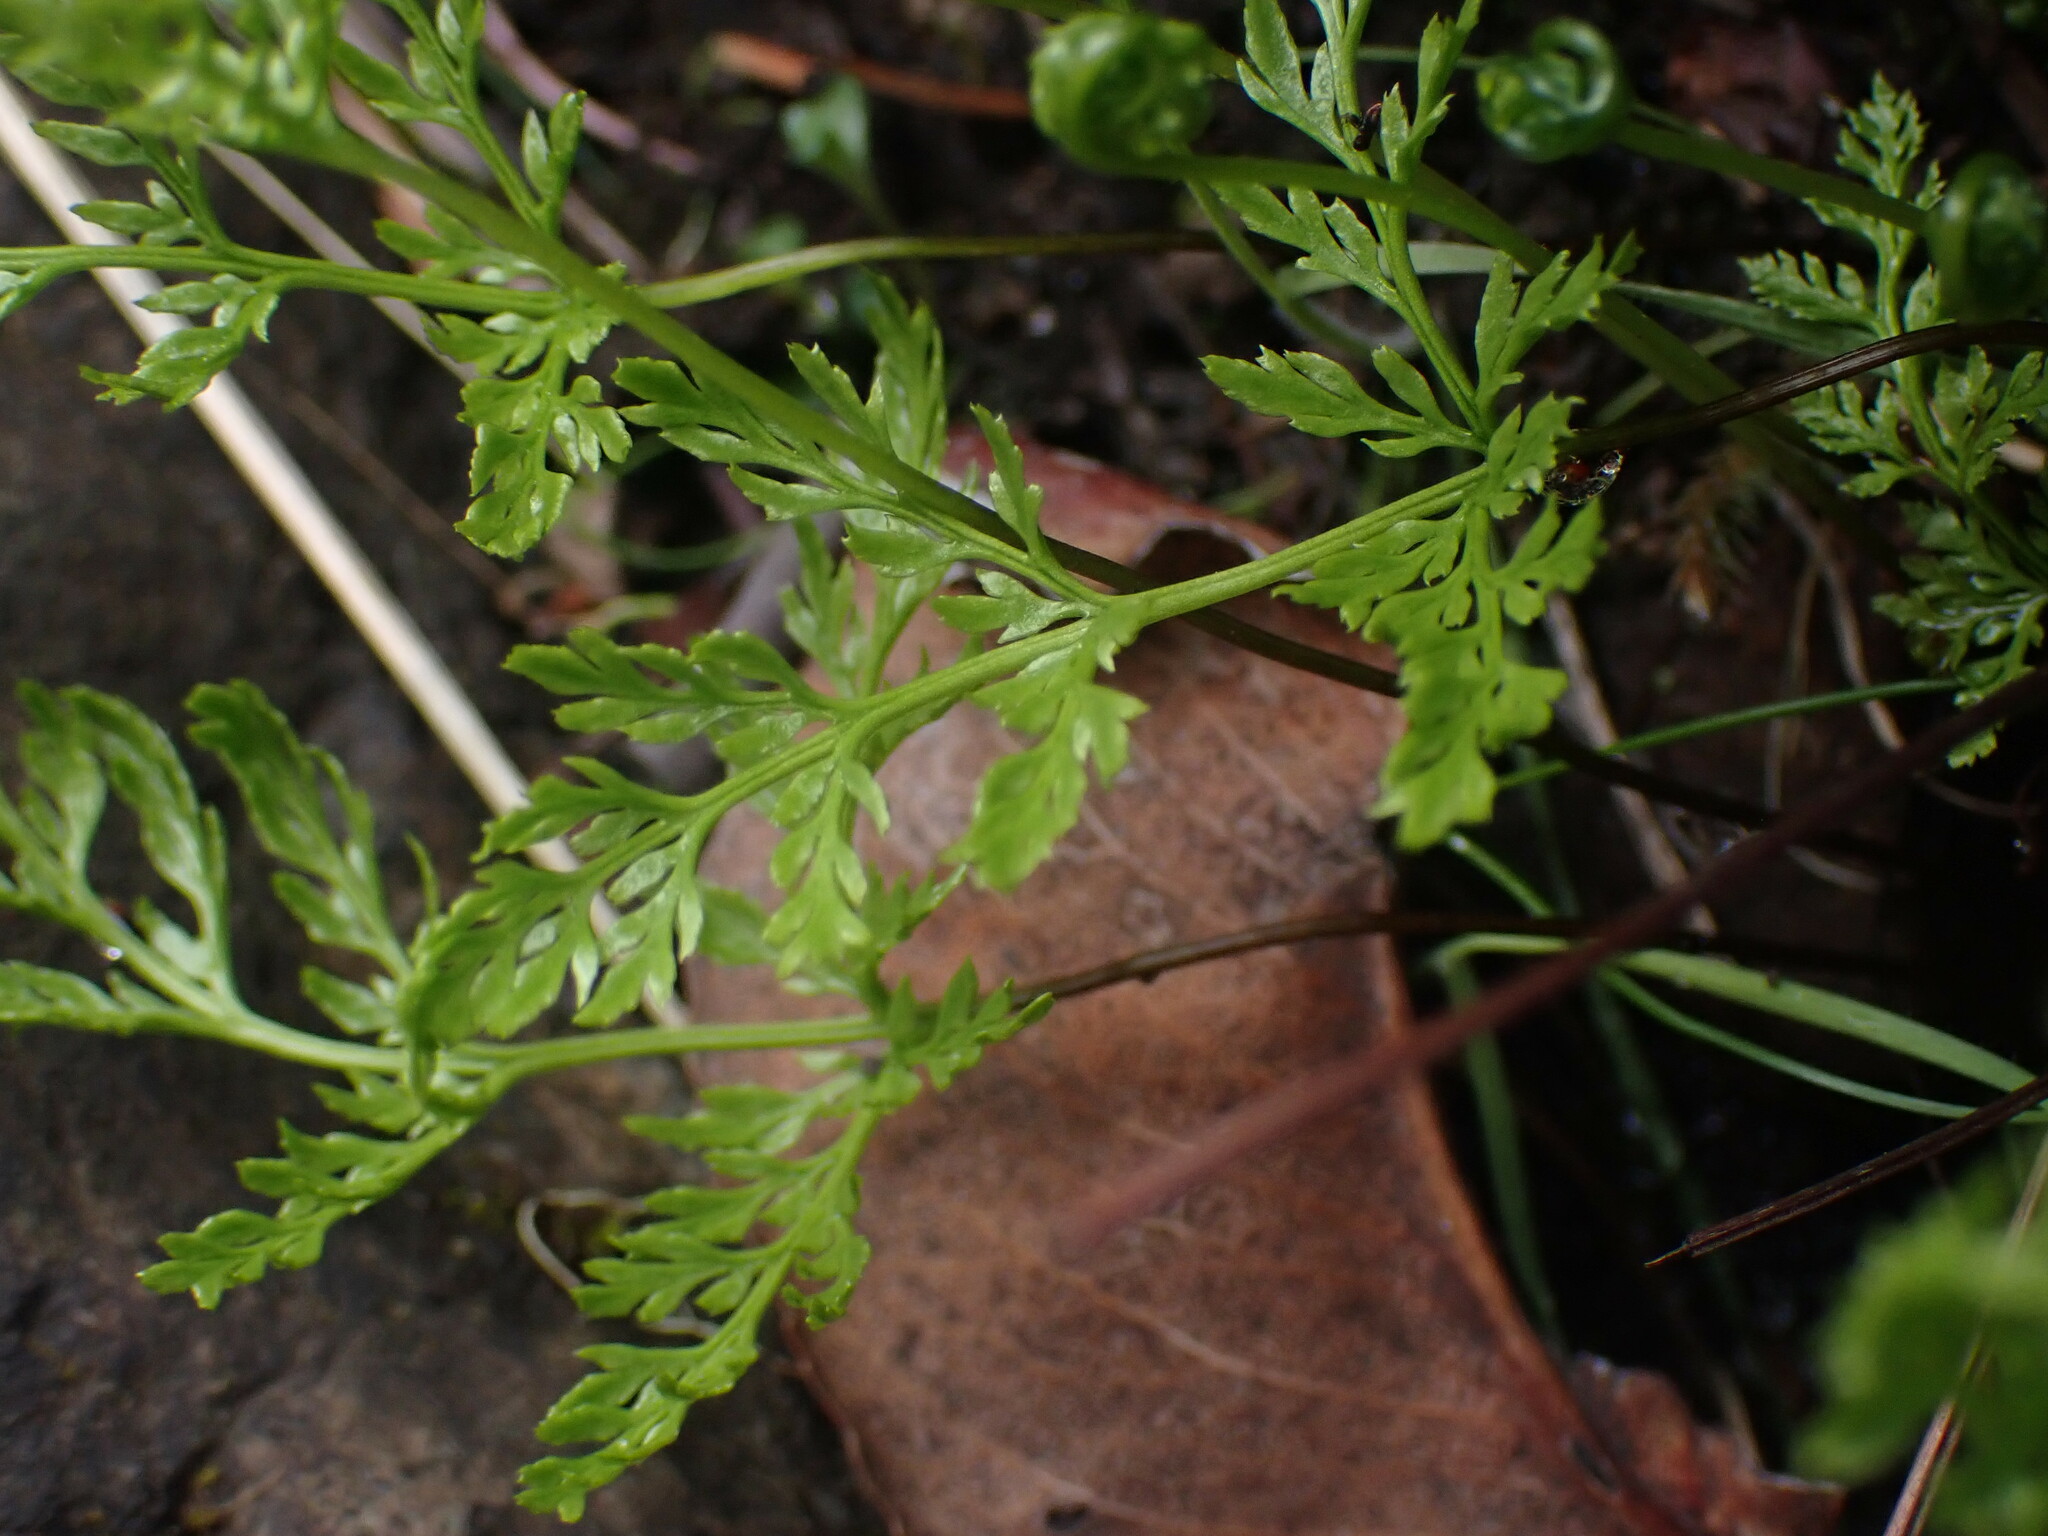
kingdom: Plantae
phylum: Tracheophyta
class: Polypodiopsida
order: Polypodiales
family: Pteridaceae
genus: Aspidotis
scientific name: Aspidotis densa
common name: Indian's dream
